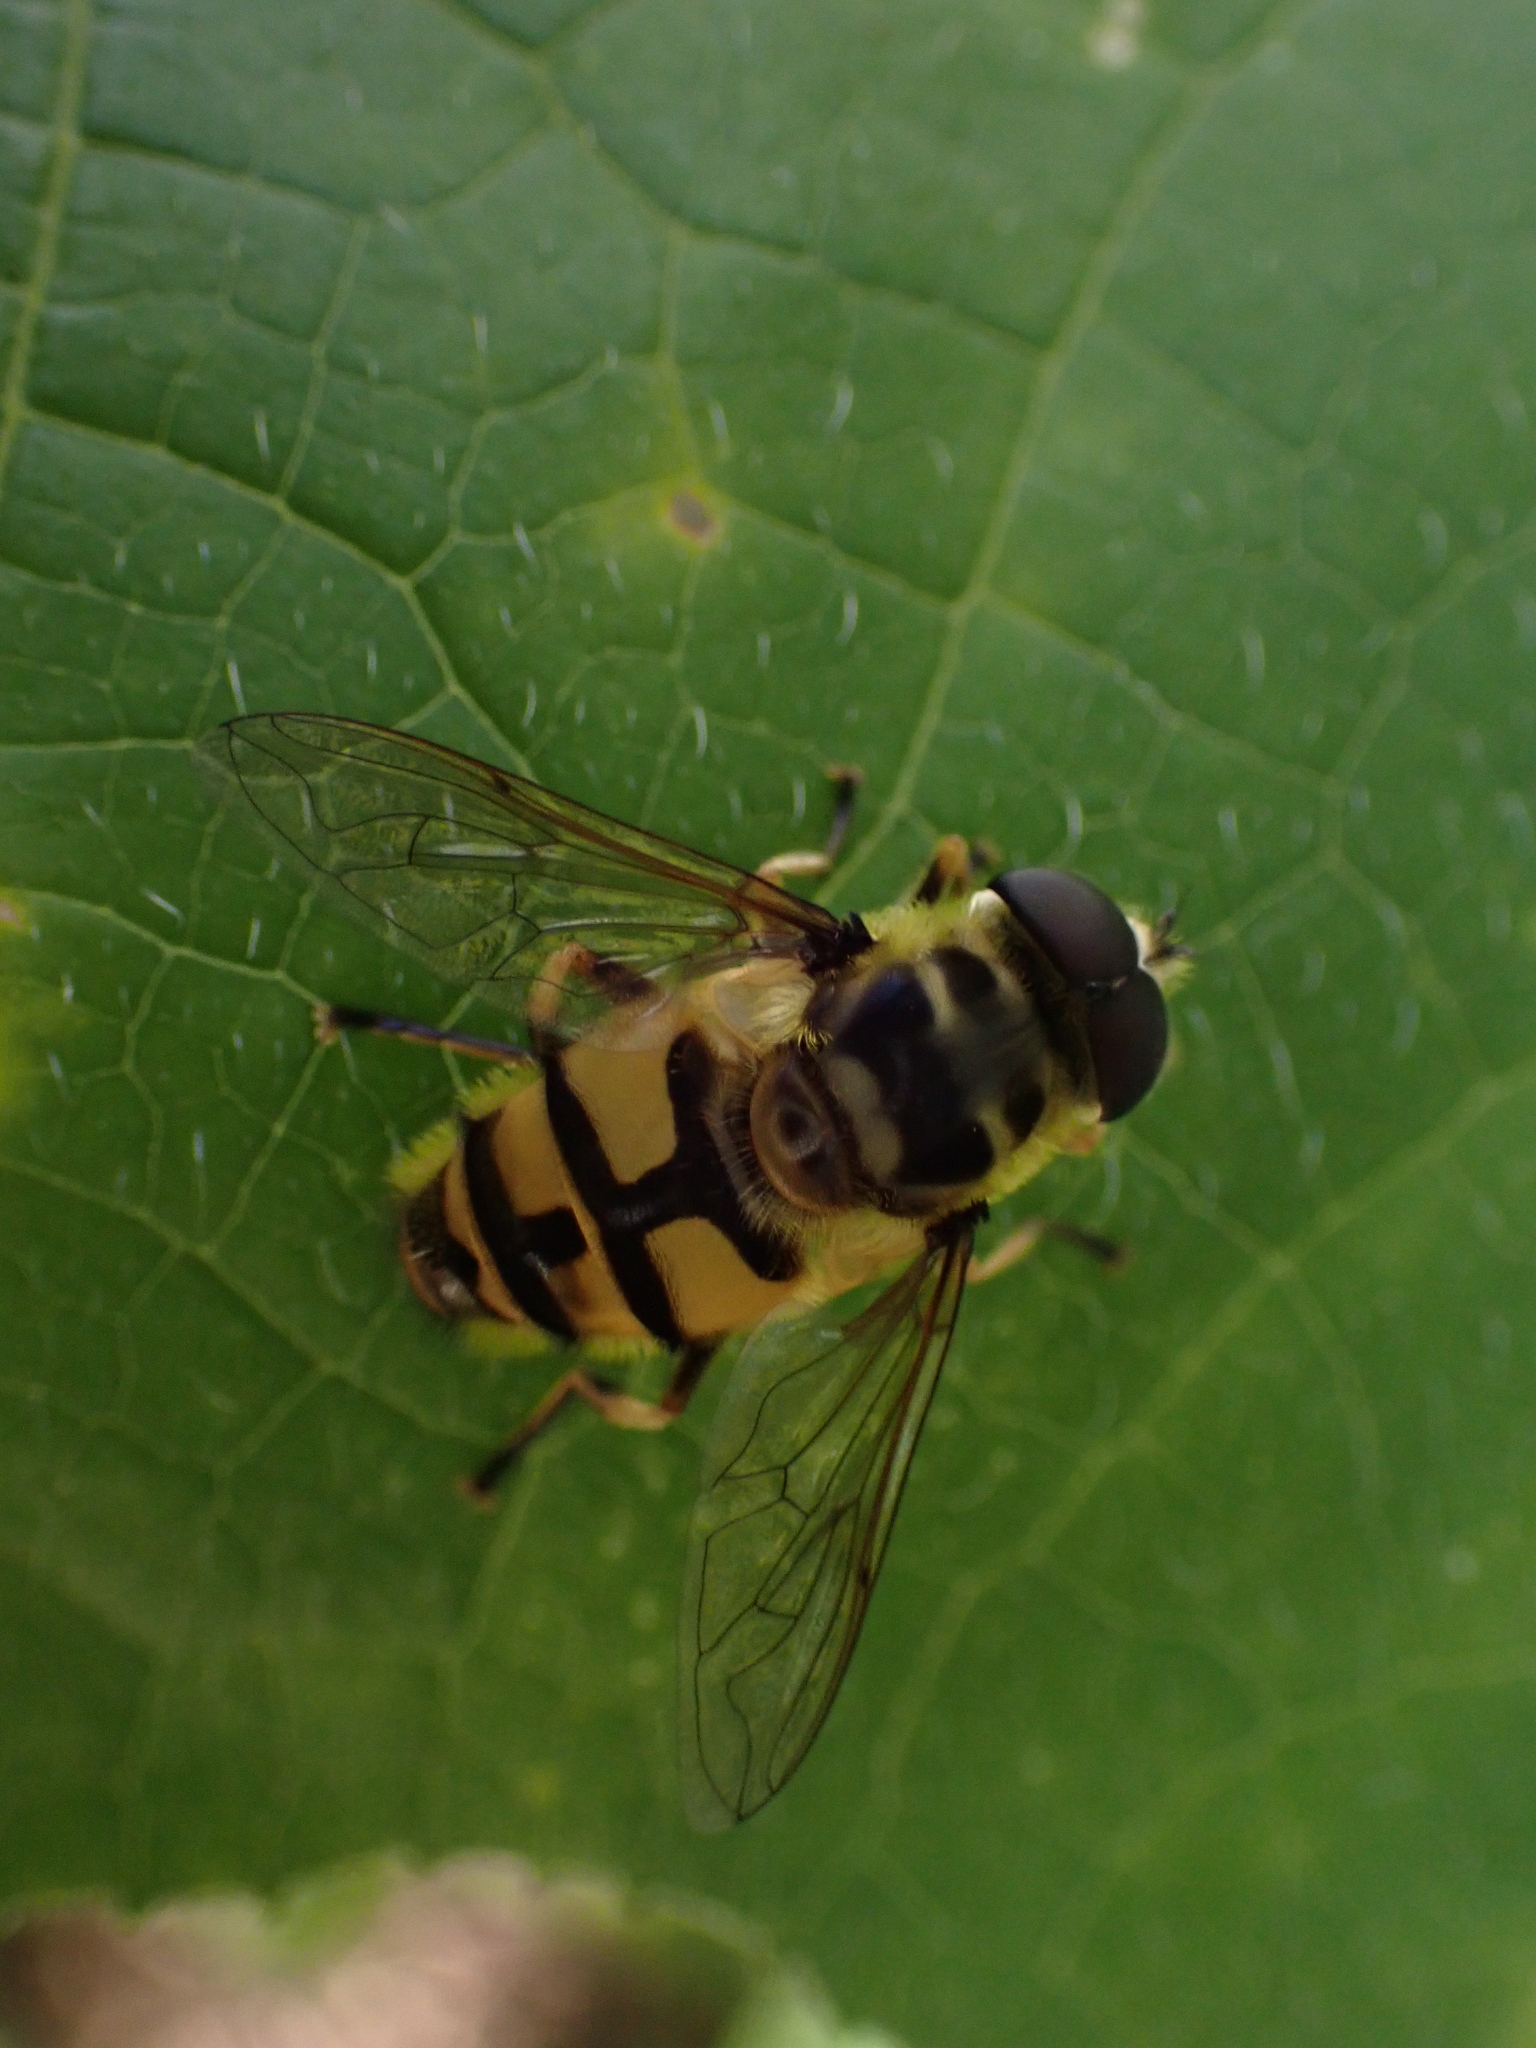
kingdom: Animalia
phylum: Arthropoda
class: Insecta
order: Diptera
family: Syrphidae
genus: Myathropa
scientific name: Myathropa florea
